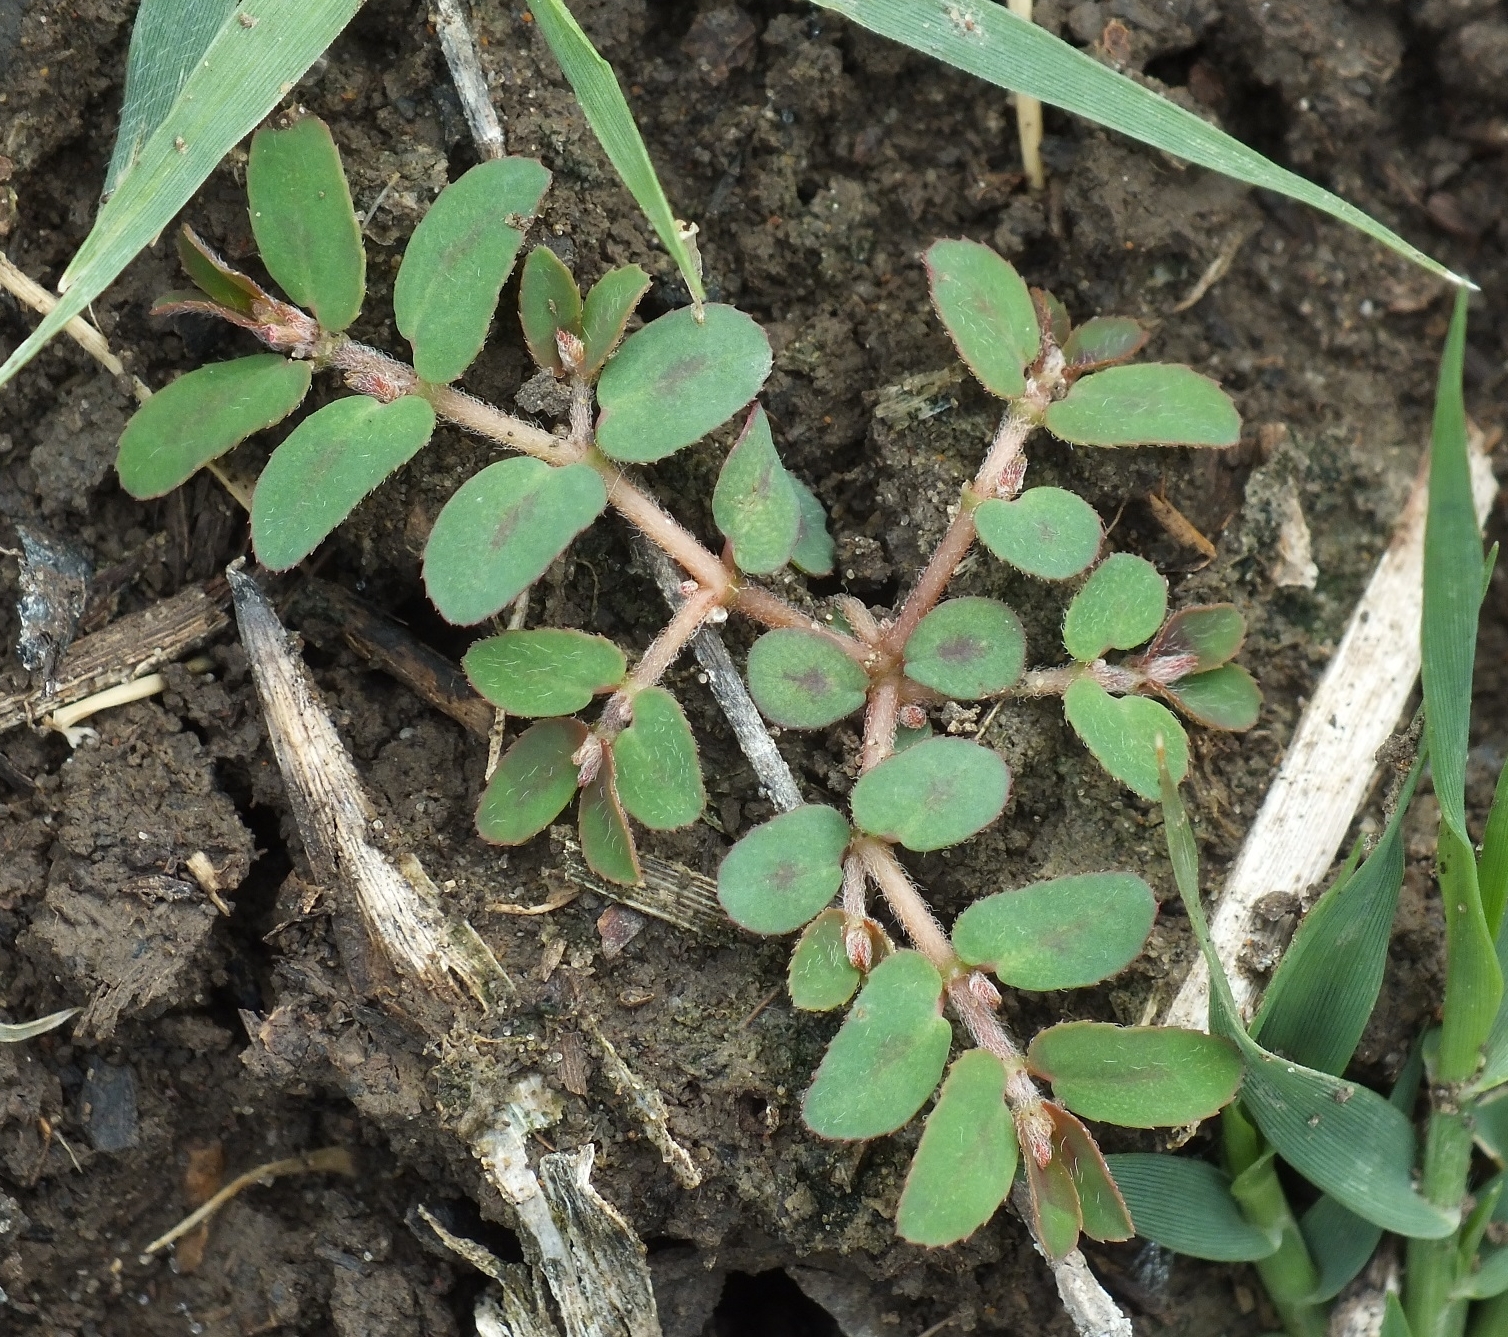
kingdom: Plantae
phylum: Tracheophyta
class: Magnoliopsida
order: Malpighiales
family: Euphorbiaceae
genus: Euphorbia
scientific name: Euphorbia maculata
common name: Spotted spurge
